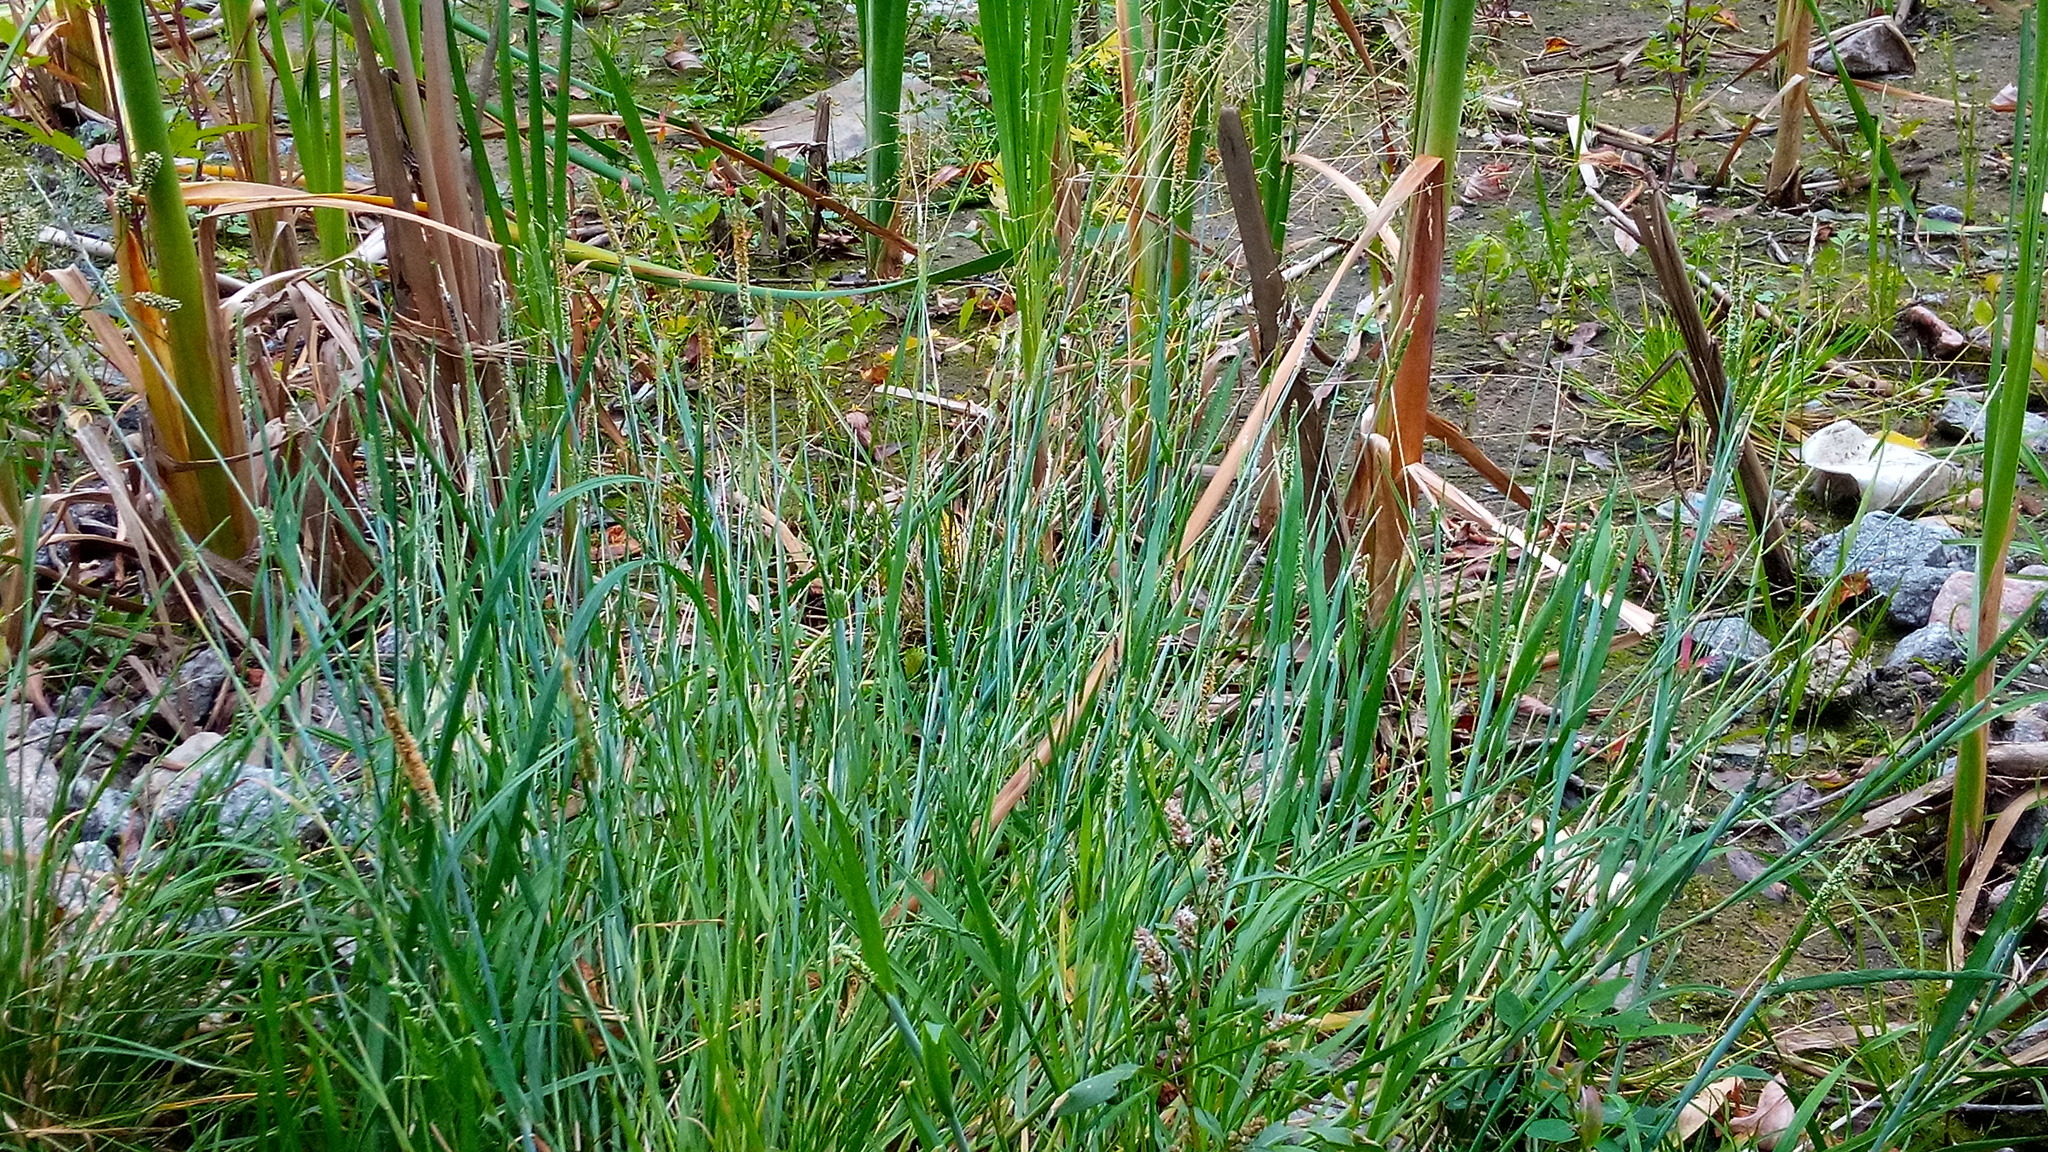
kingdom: Plantae
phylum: Tracheophyta
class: Liliopsida
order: Poales
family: Poaceae
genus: Alopecurus
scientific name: Alopecurus aequalis
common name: Orange foxtail
